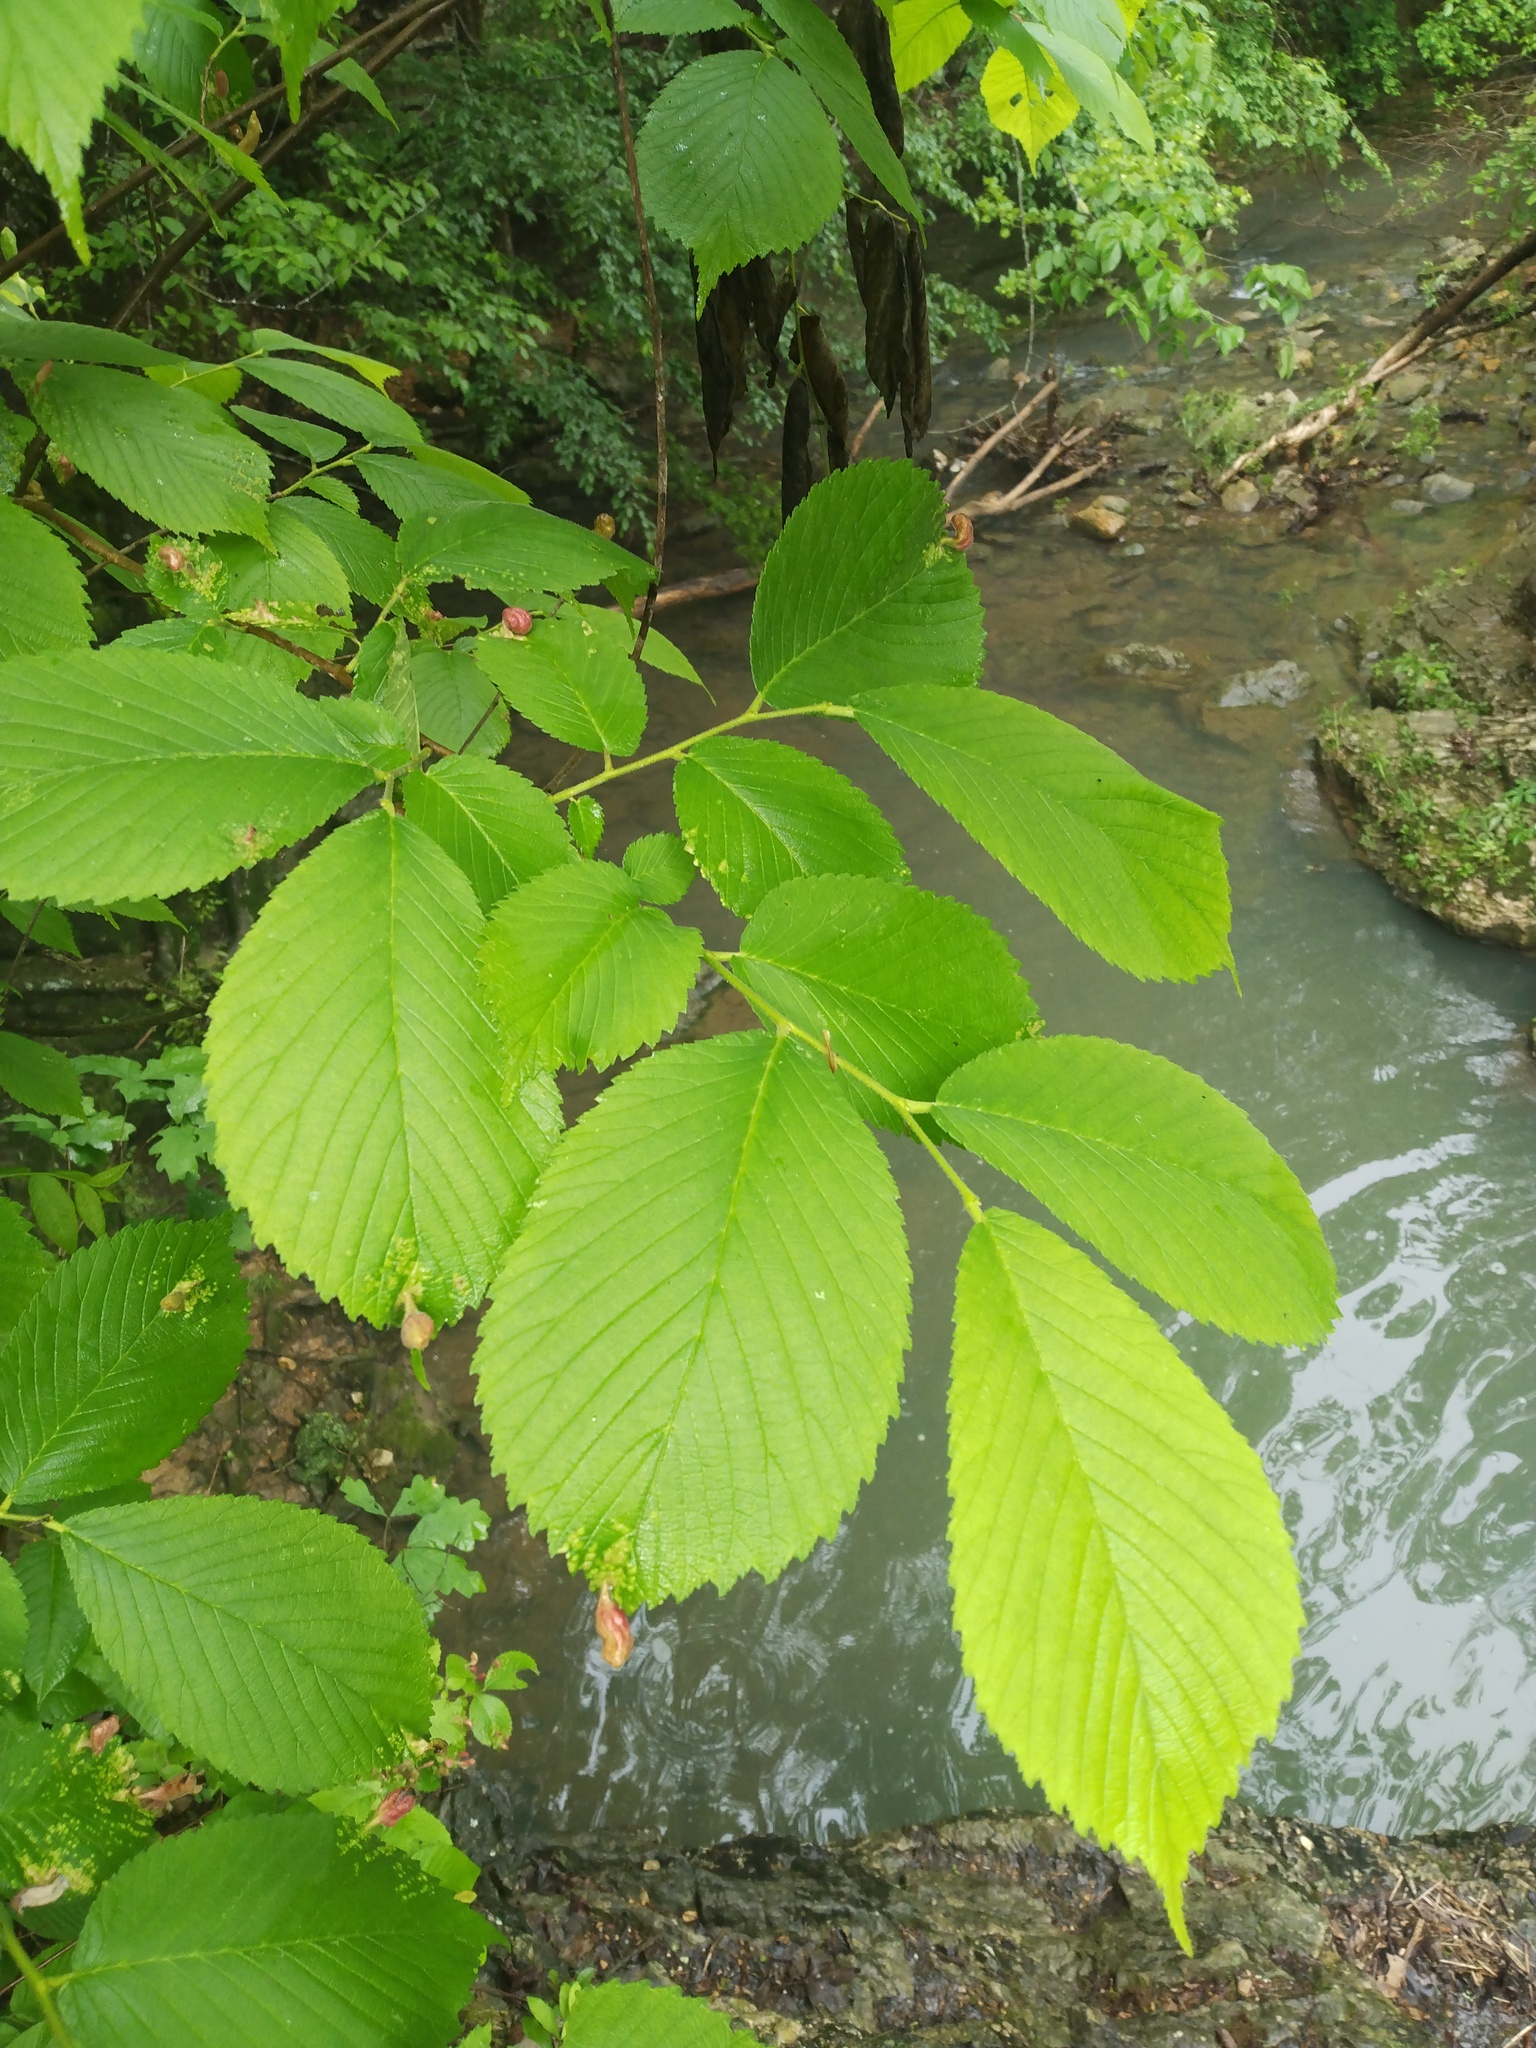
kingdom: Plantae
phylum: Tracheophyta
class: Magnoliopsida
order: Rosales
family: Ulmaceae
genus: Ulmus
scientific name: Ulmus rubra
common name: Slippery elm
